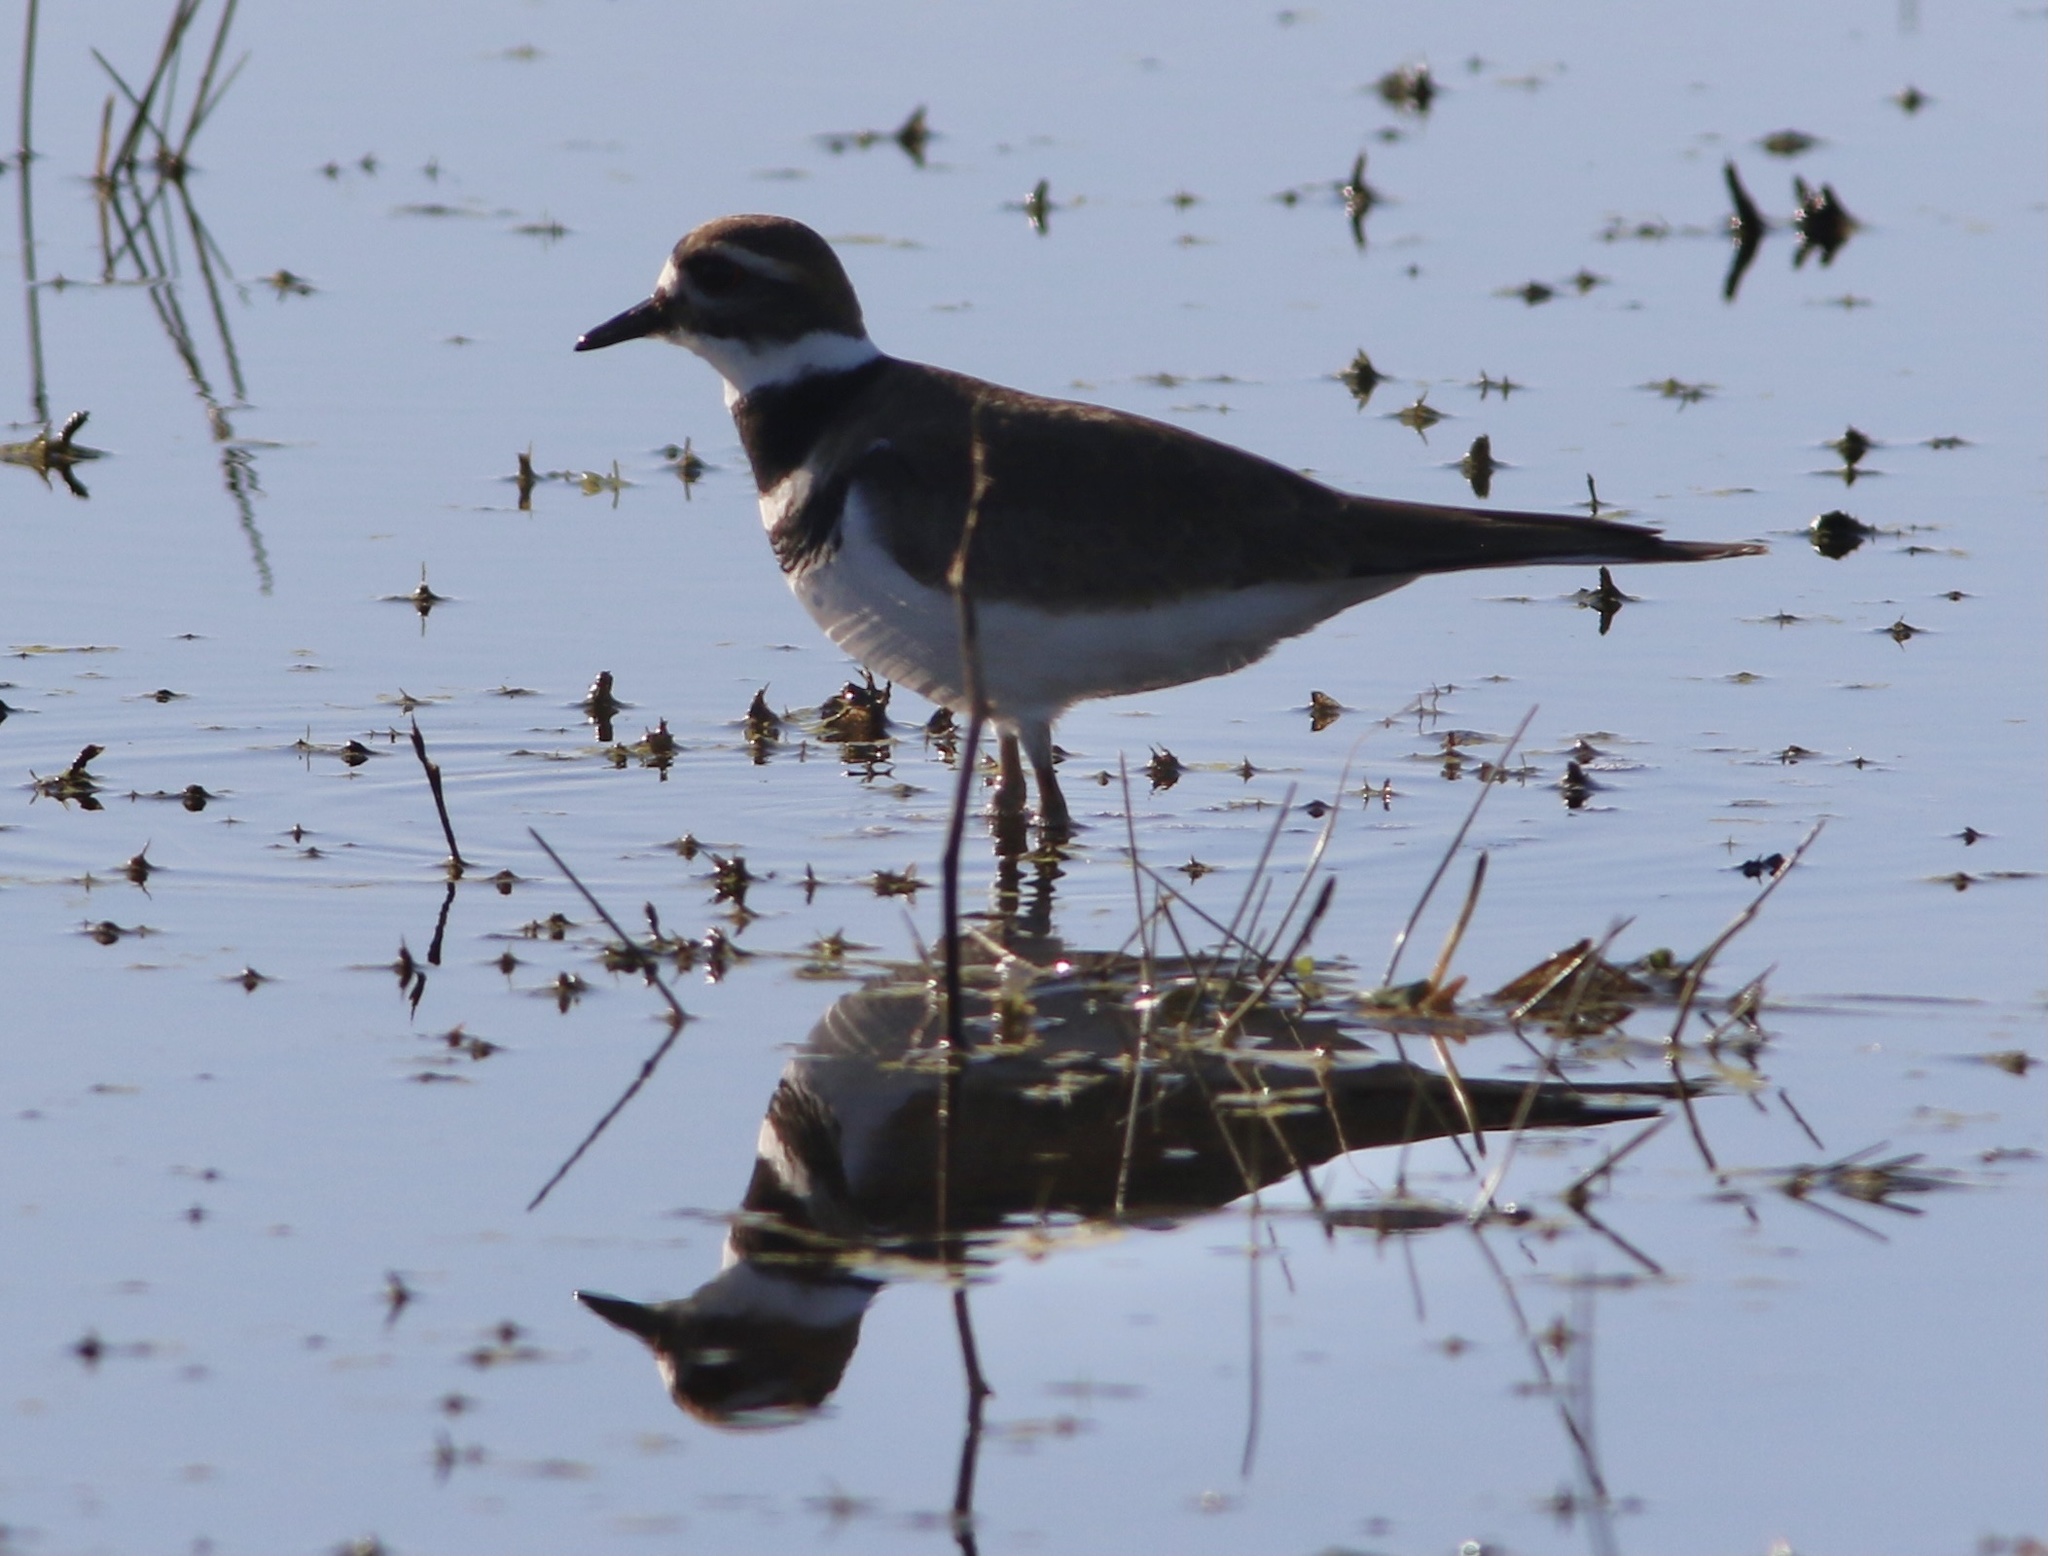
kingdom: Animalia
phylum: Chordata
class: Aves
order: Charadriiformes
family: Charadriidae
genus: Charadrius
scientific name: Charadrius vociferus
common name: Killdeer
